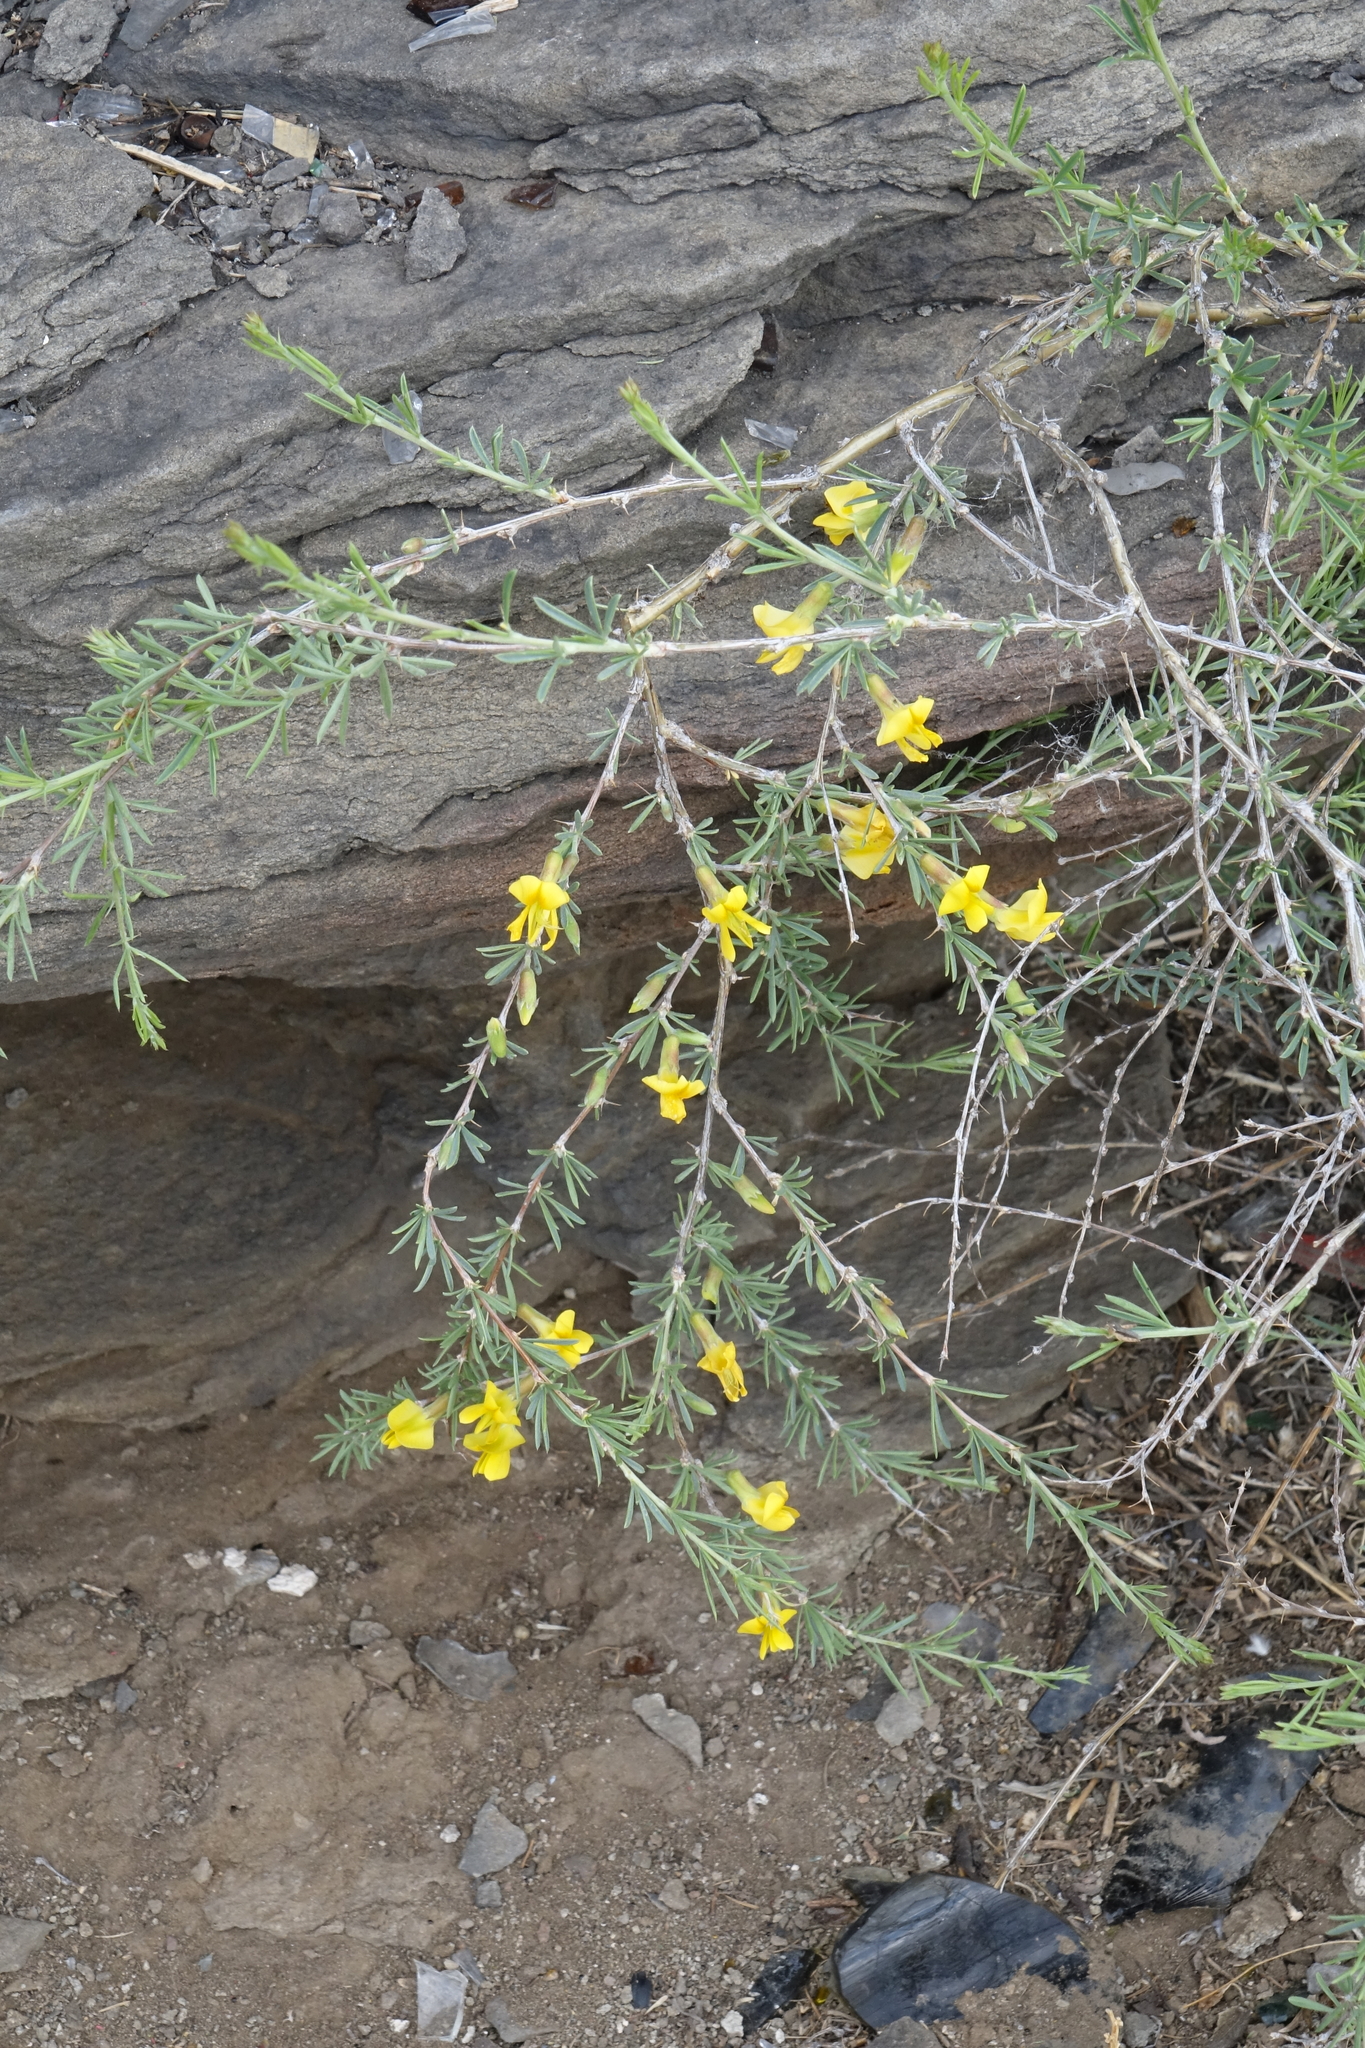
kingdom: Plantae
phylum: Tracheophyta
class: Magnoliopsida
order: Fabales
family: Fabaceae
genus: Caragana
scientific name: Caragana pygmaea
